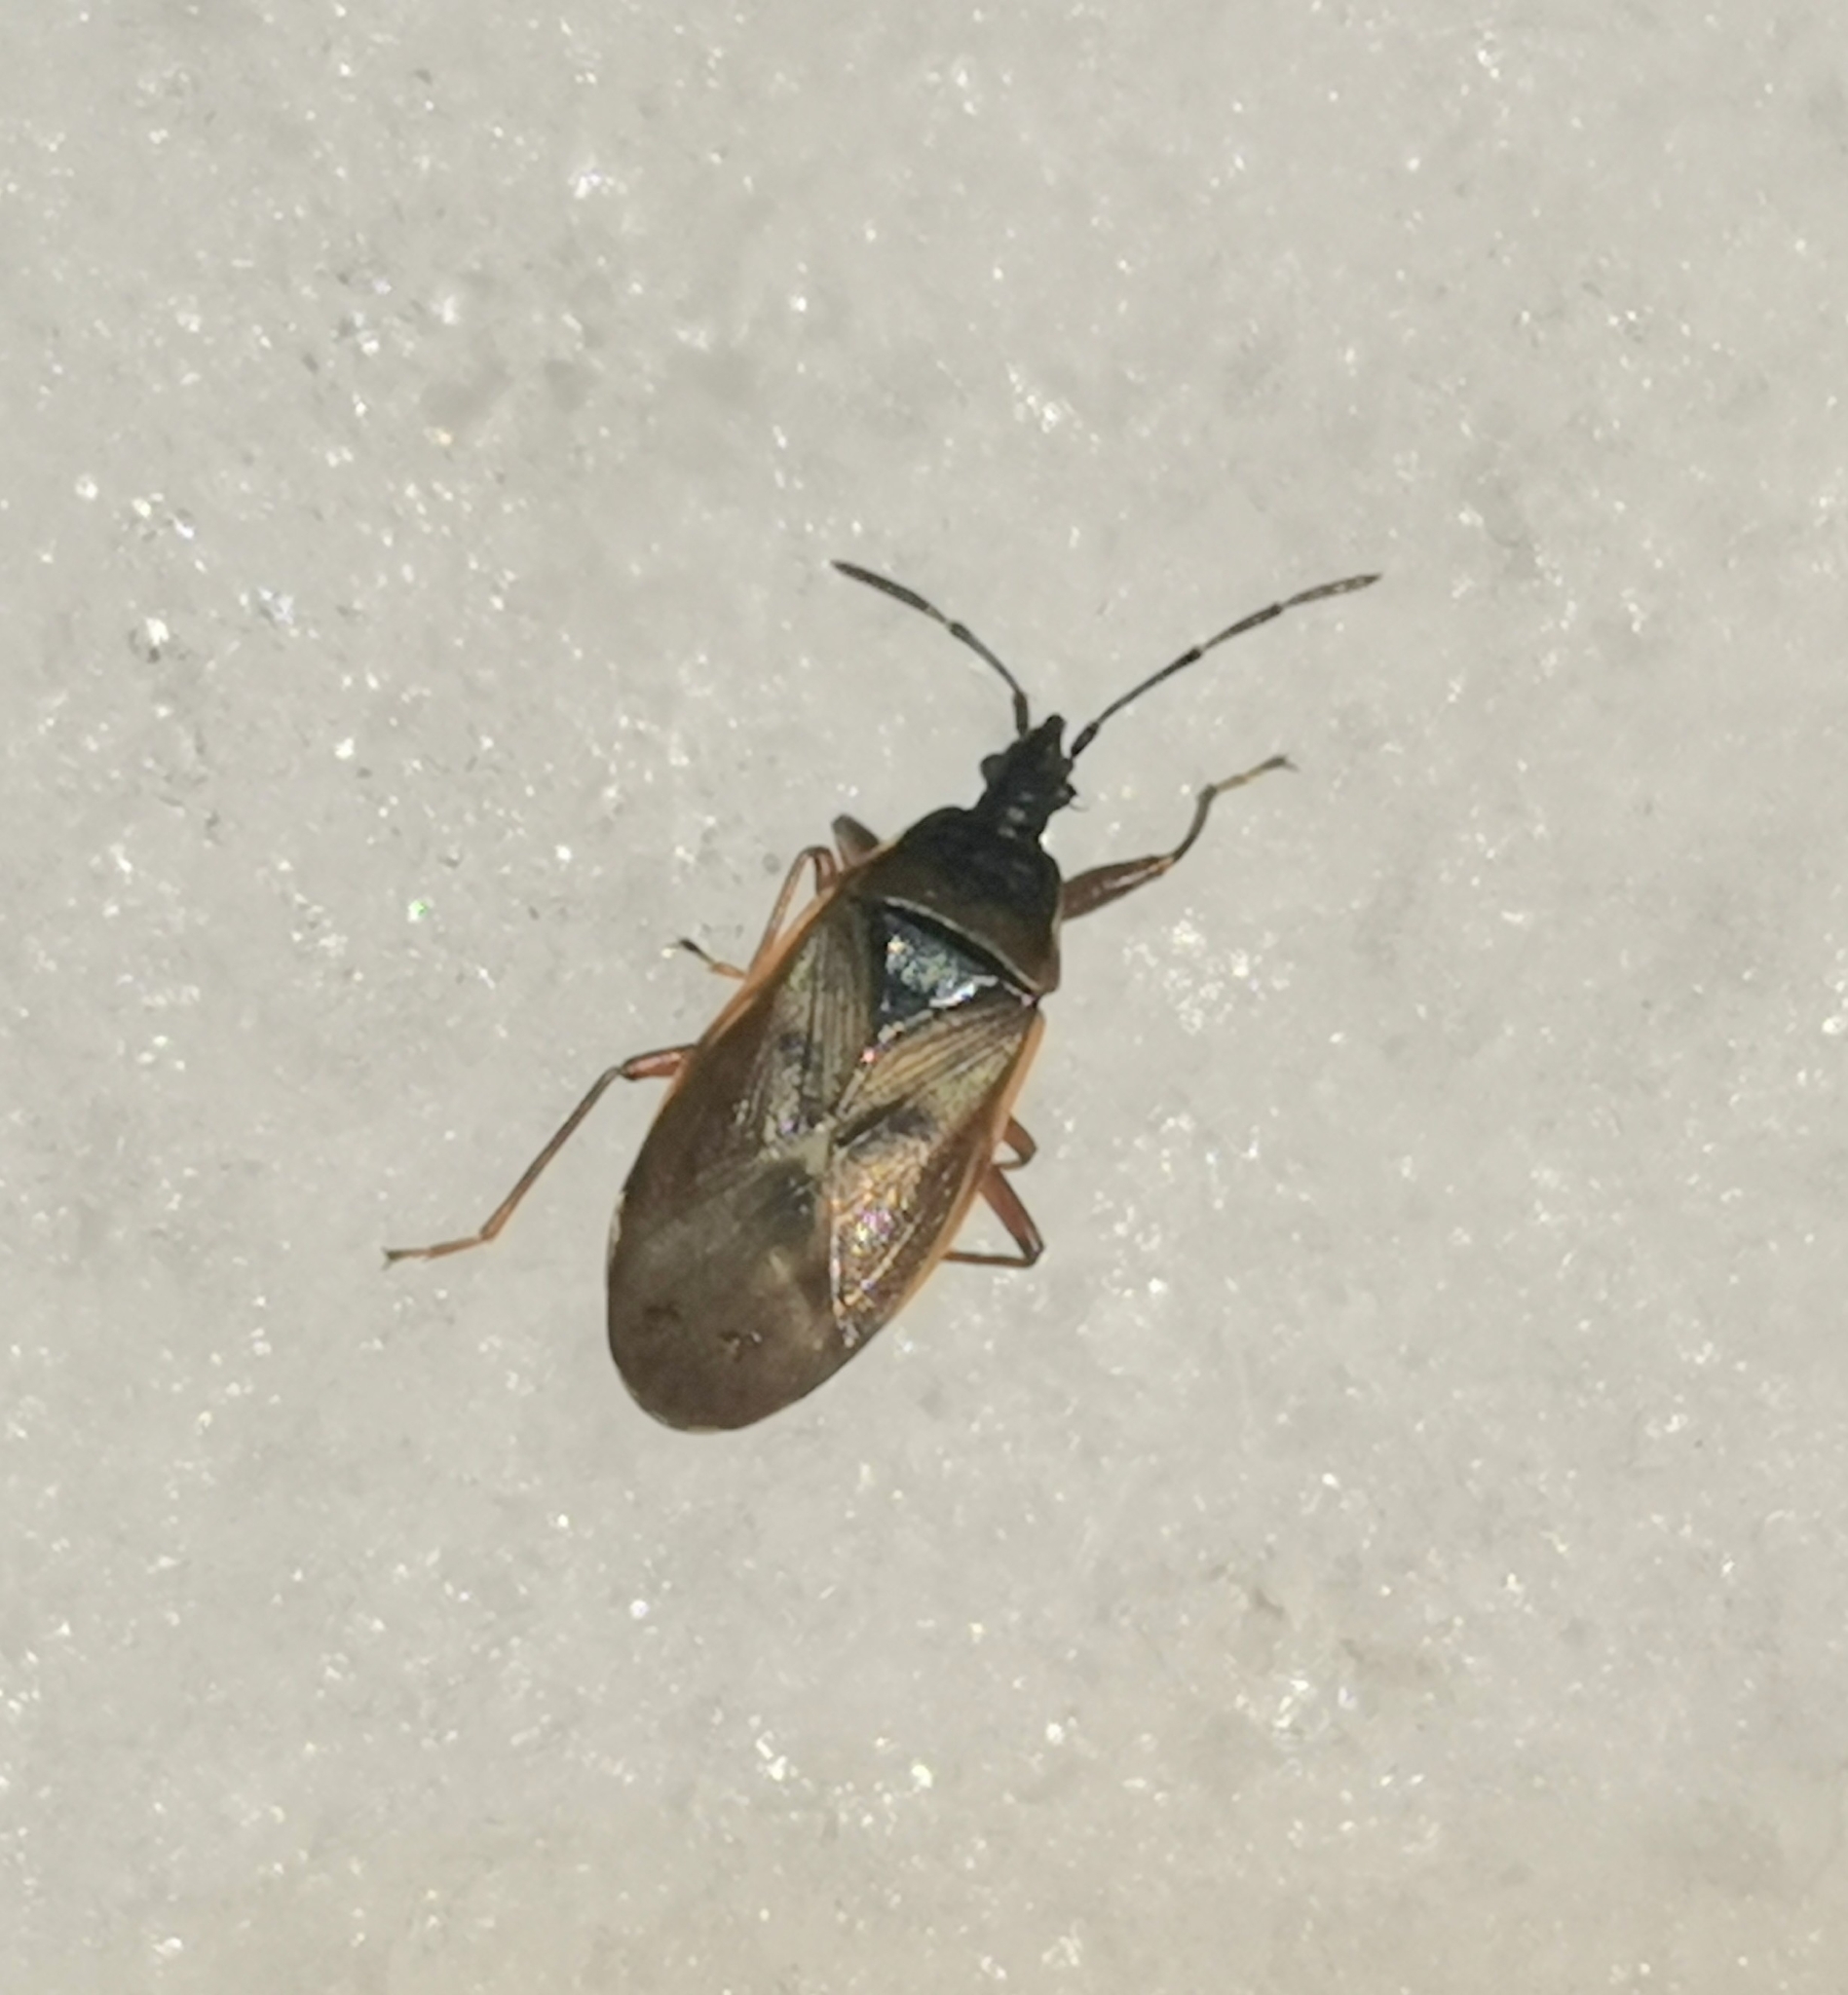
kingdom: Animalia
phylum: Arthropoda
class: Insecta
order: Hemiptera
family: Rhyparochromidae
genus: Gastrodes
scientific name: Gastrodes abietum
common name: Spruce cone bug
